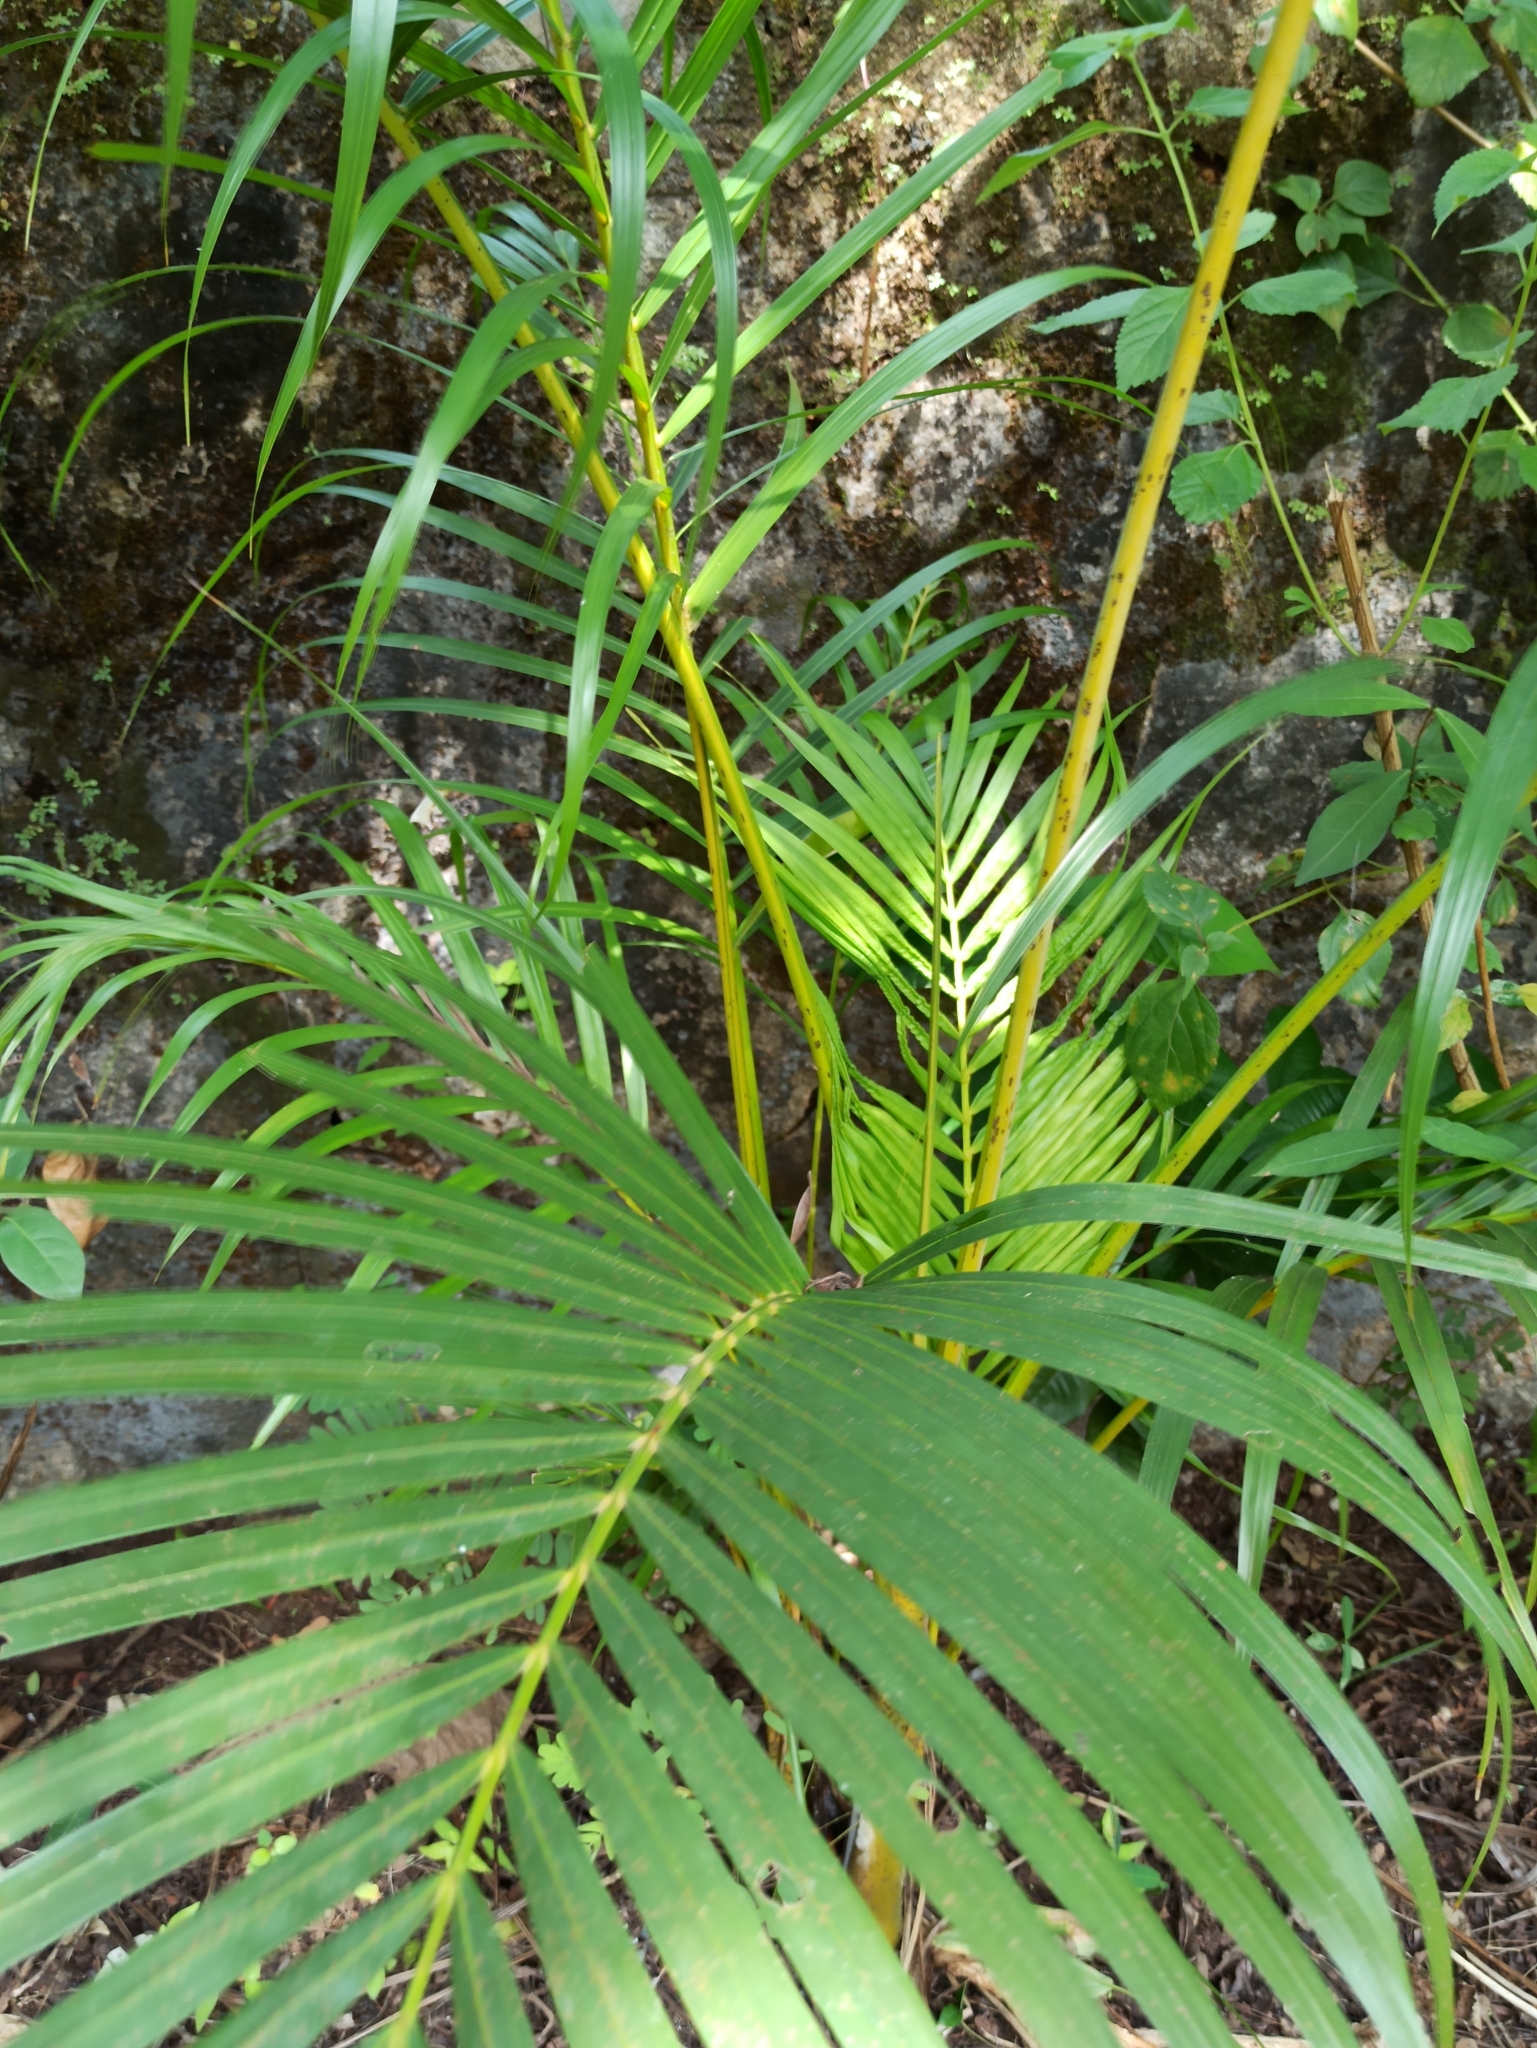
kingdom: Plantae
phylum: Tracheophyta
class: Liliopsida
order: Arecales
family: Arecaceae
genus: Dypsis
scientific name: Dypsis lutescens
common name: Yellow butterfly palm
